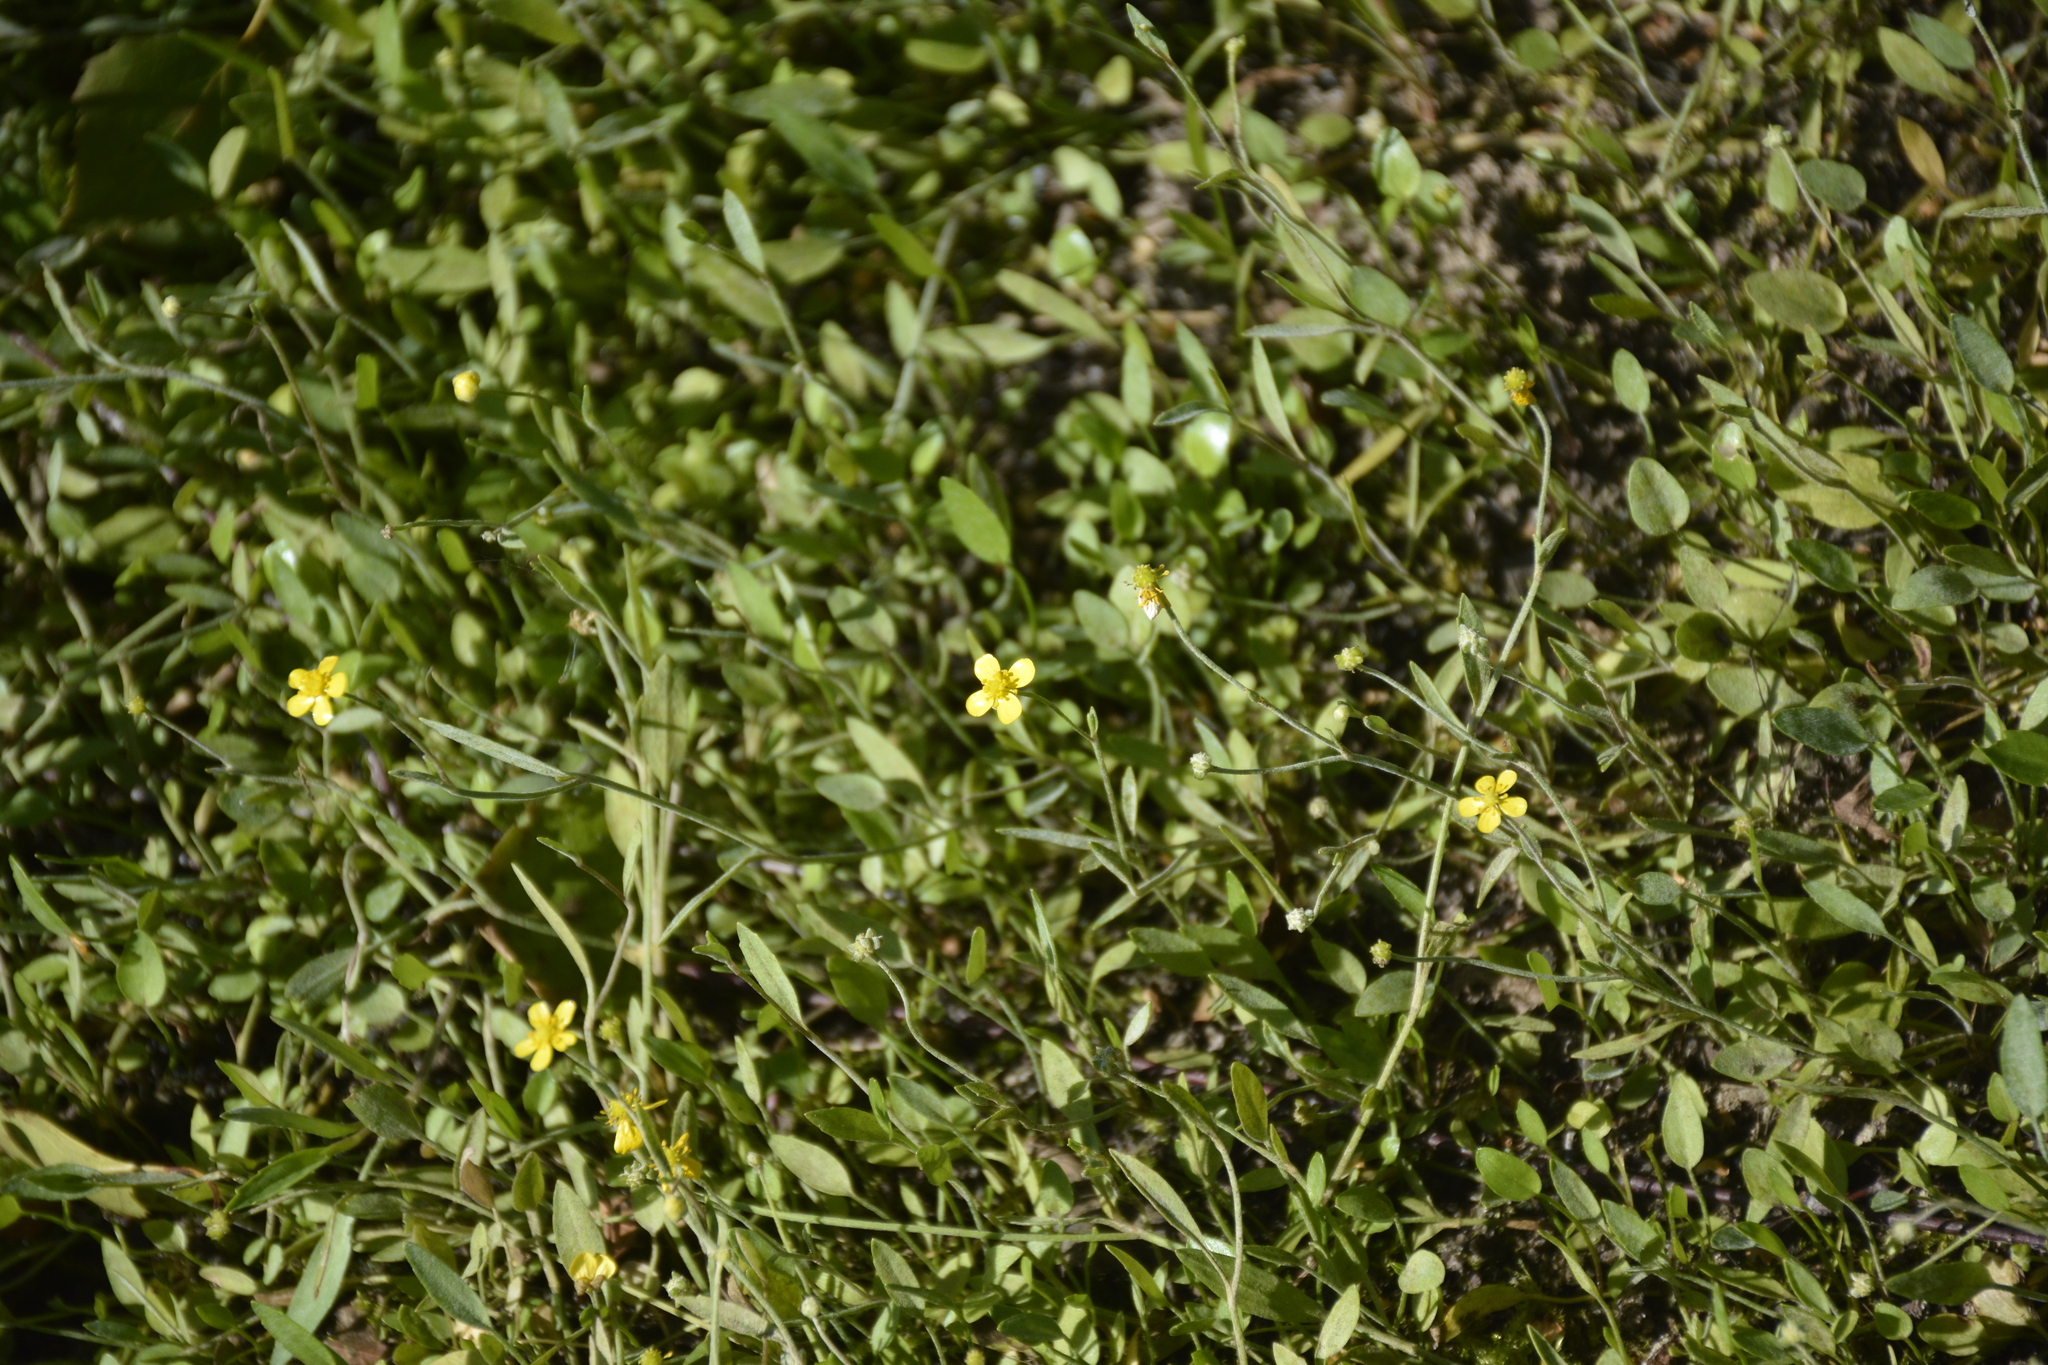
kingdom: Plantae
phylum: Tracheophyta
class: Magnoliopsida
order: Ranunculales
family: Ranunculaceae
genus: Ranunculus
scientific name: Ranunculus flammula
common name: Lesser spearwort
